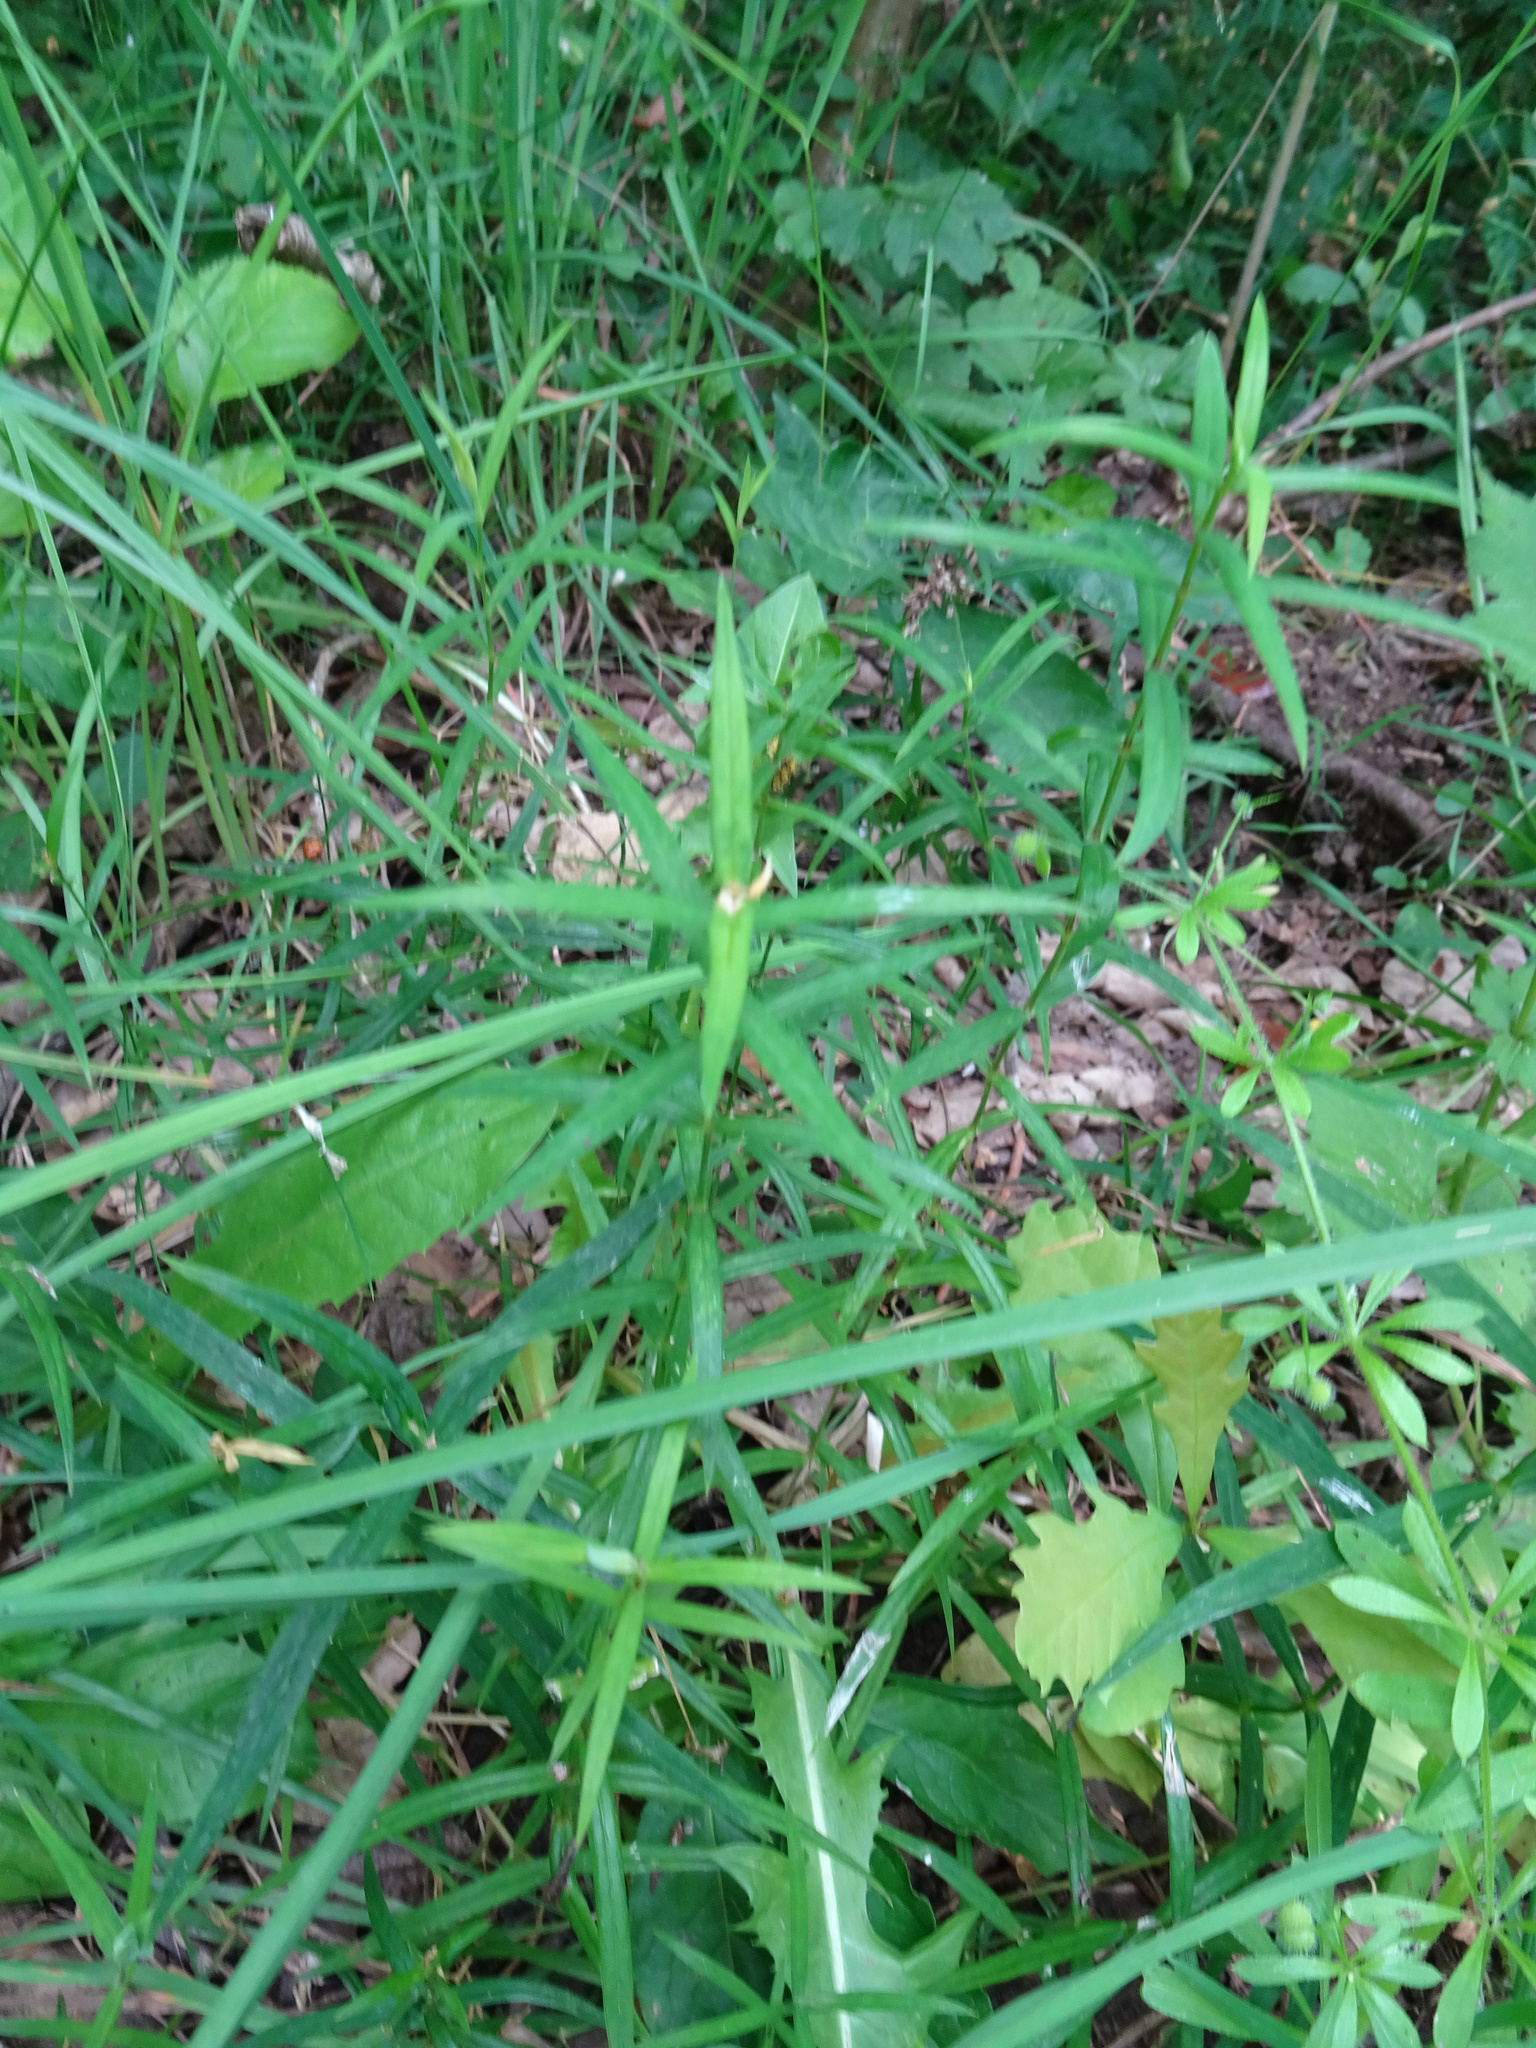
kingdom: Plantae
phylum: Tracheophyta
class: Magnoliopsida
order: Caryophyllales
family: Caryophyllaceae
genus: Rabelera
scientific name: Rabelera holostea
